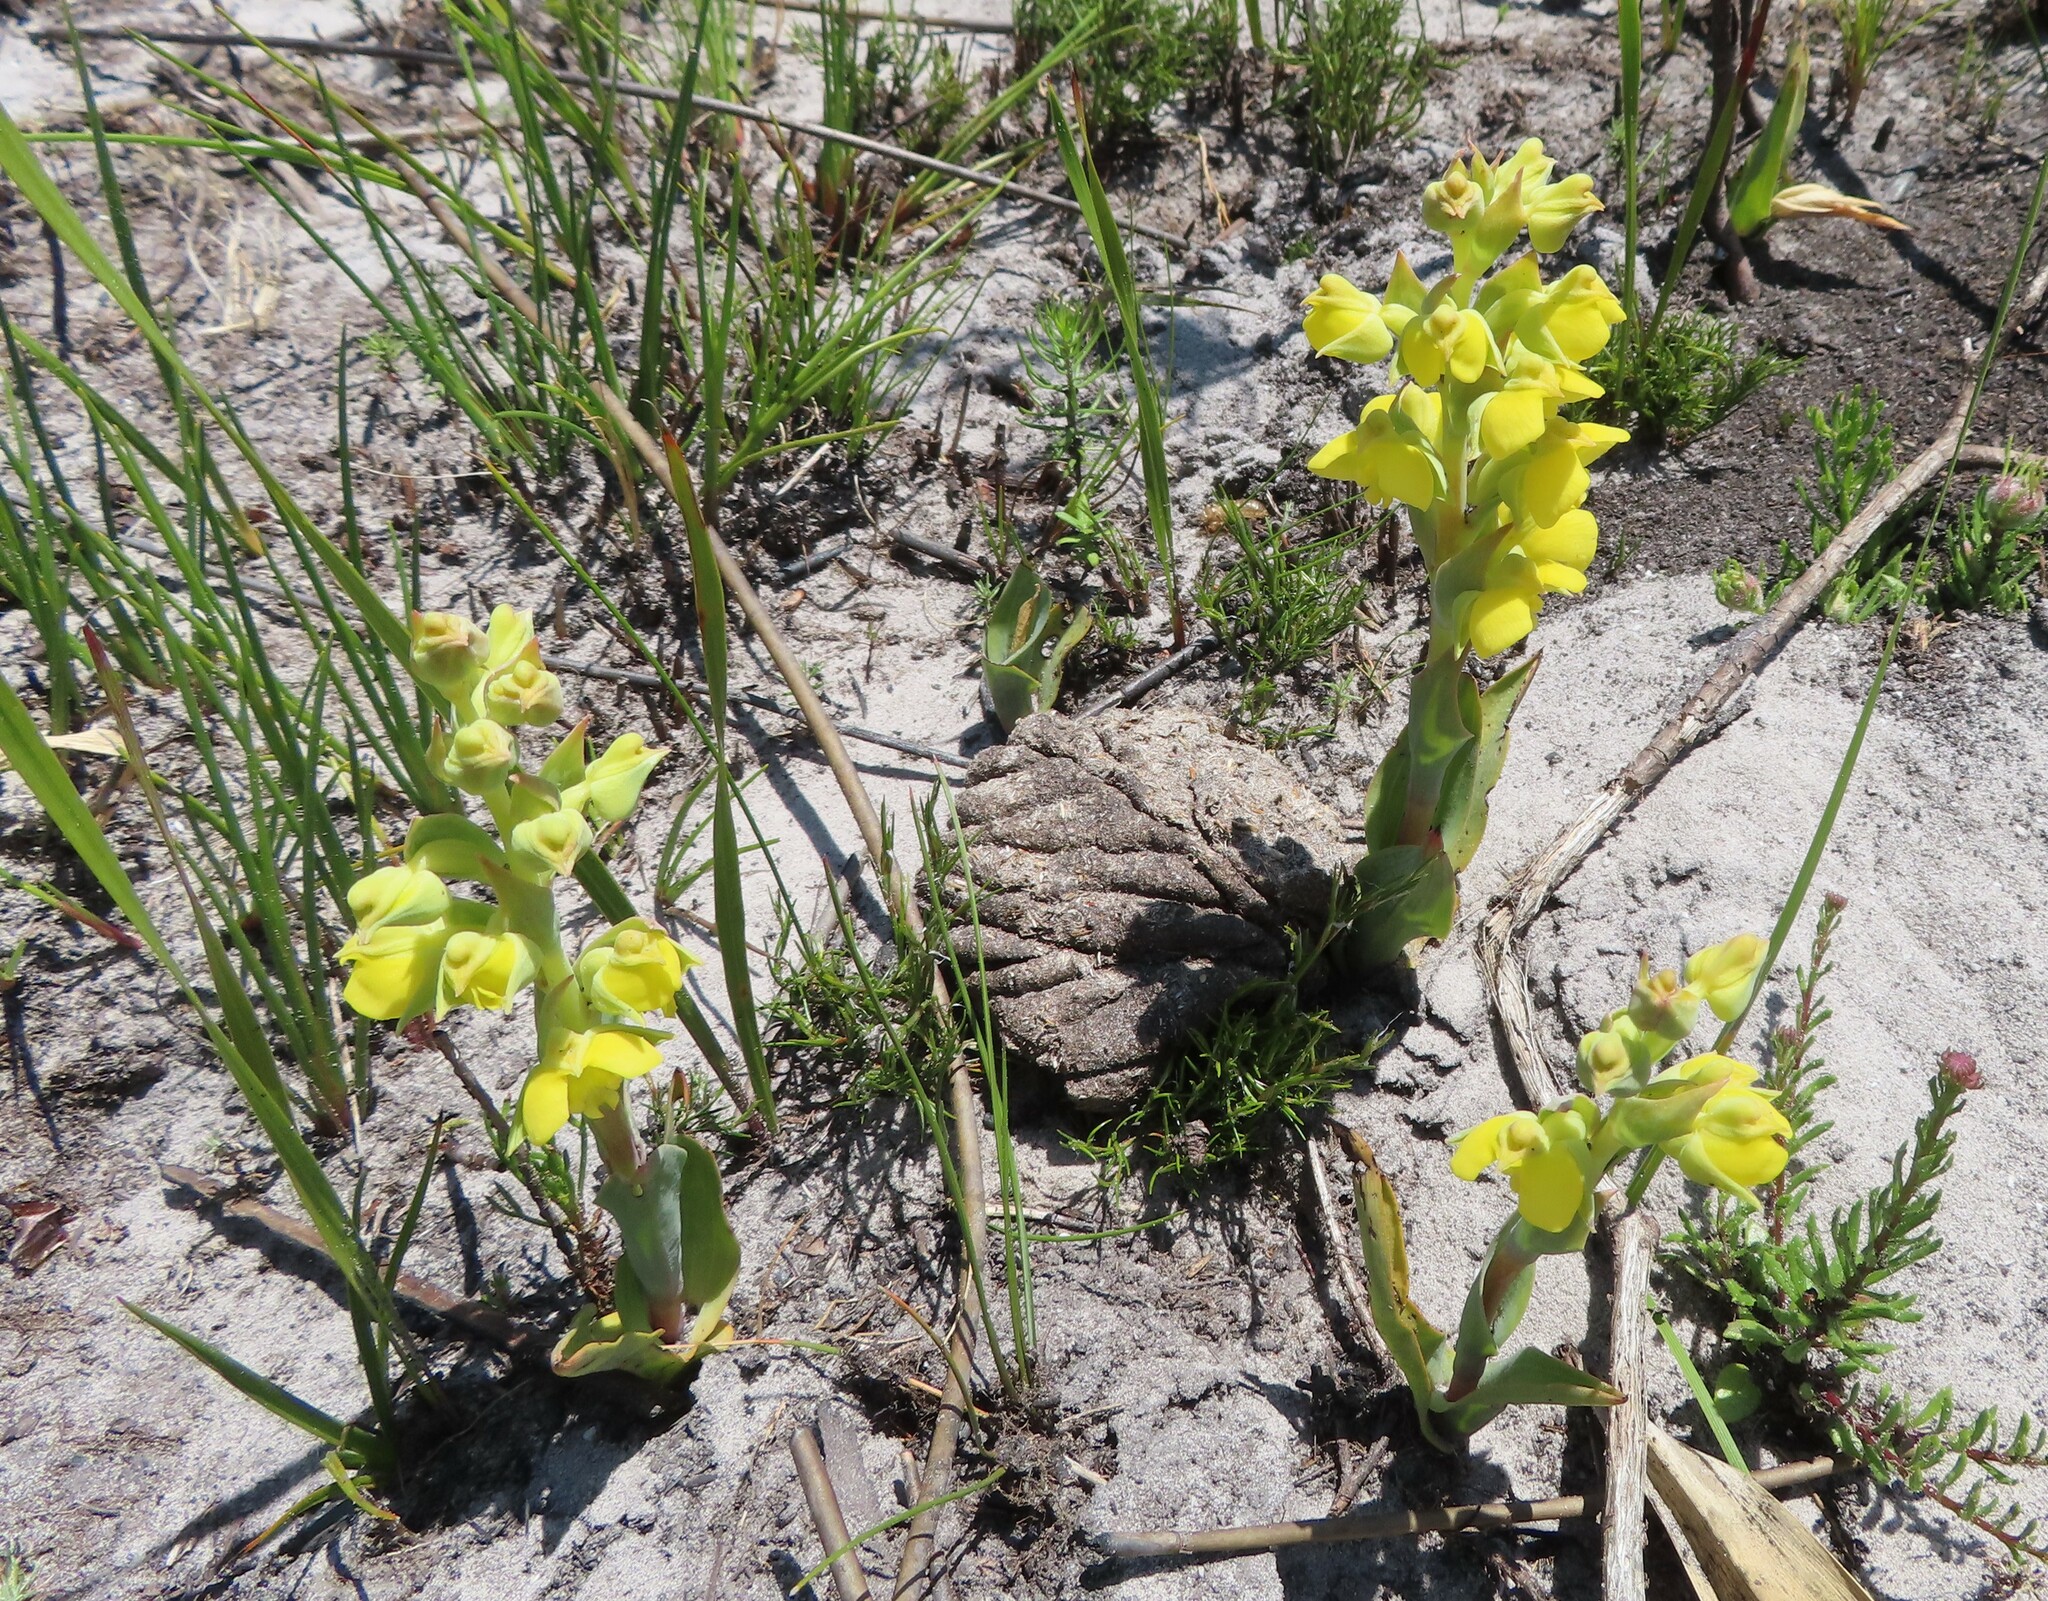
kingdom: Plantae
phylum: Tracheophyta
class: Liliopsida
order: Asparagales
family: Orchidaceae
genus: Pterygodium
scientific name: Pterygodium acutifolium
